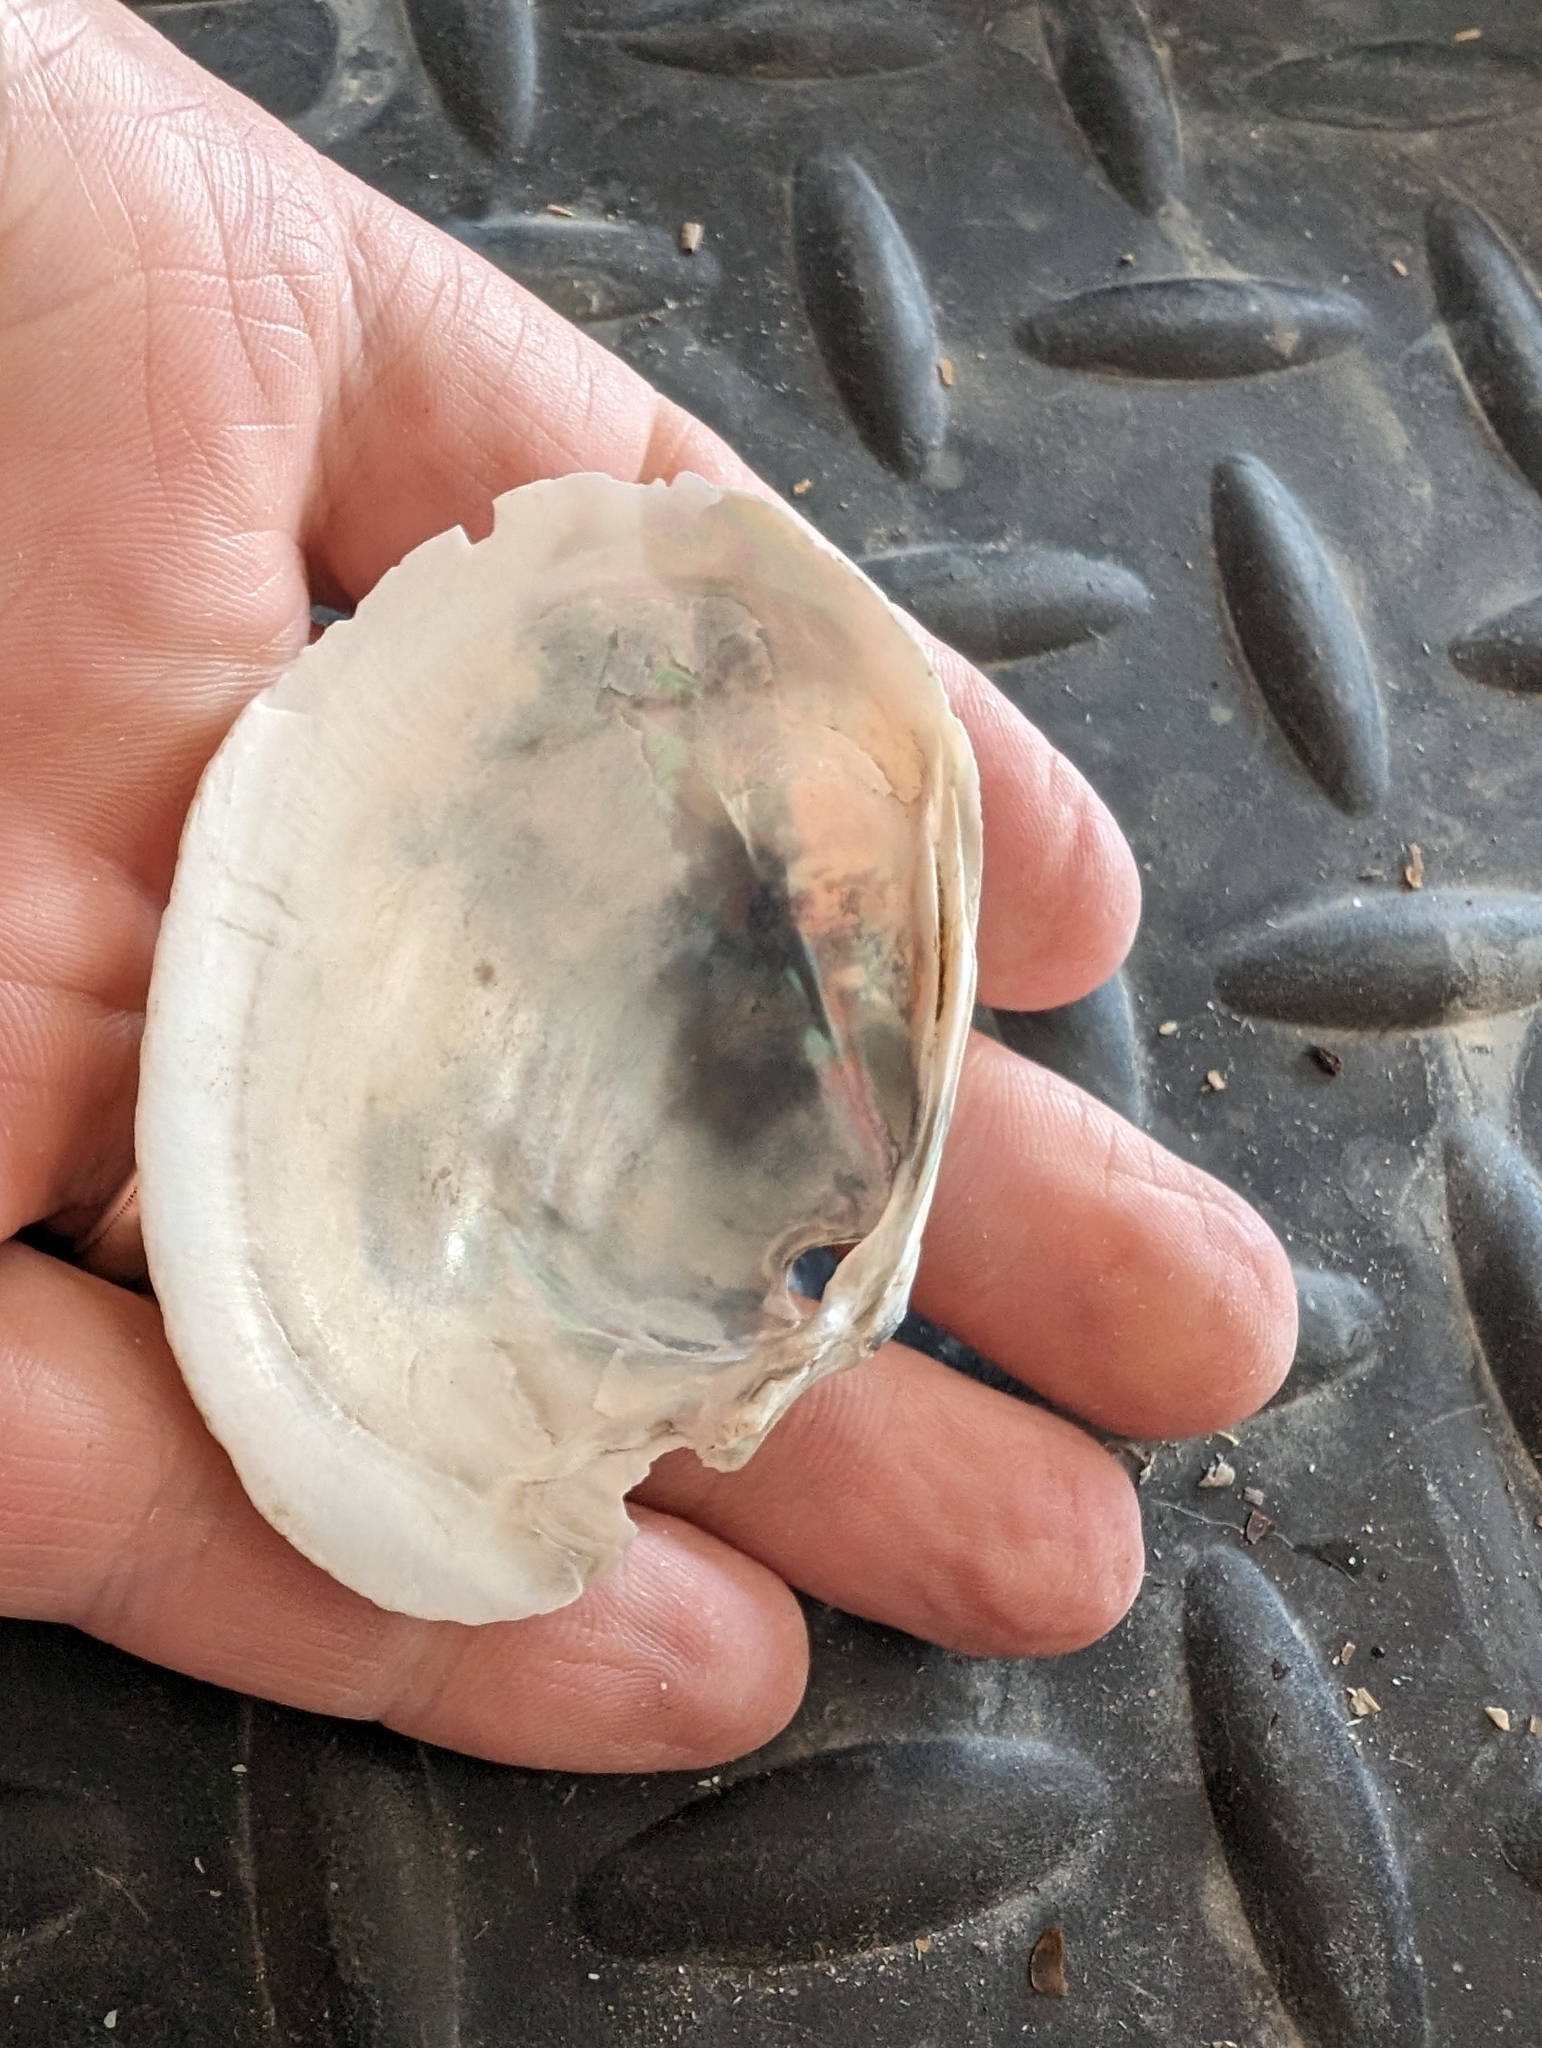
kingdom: Animalia
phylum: Mollusca
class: Bivalvia
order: Unionida
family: Unionidae
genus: Lampsilis
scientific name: Lampsilis cardium
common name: Plain pocketbook
